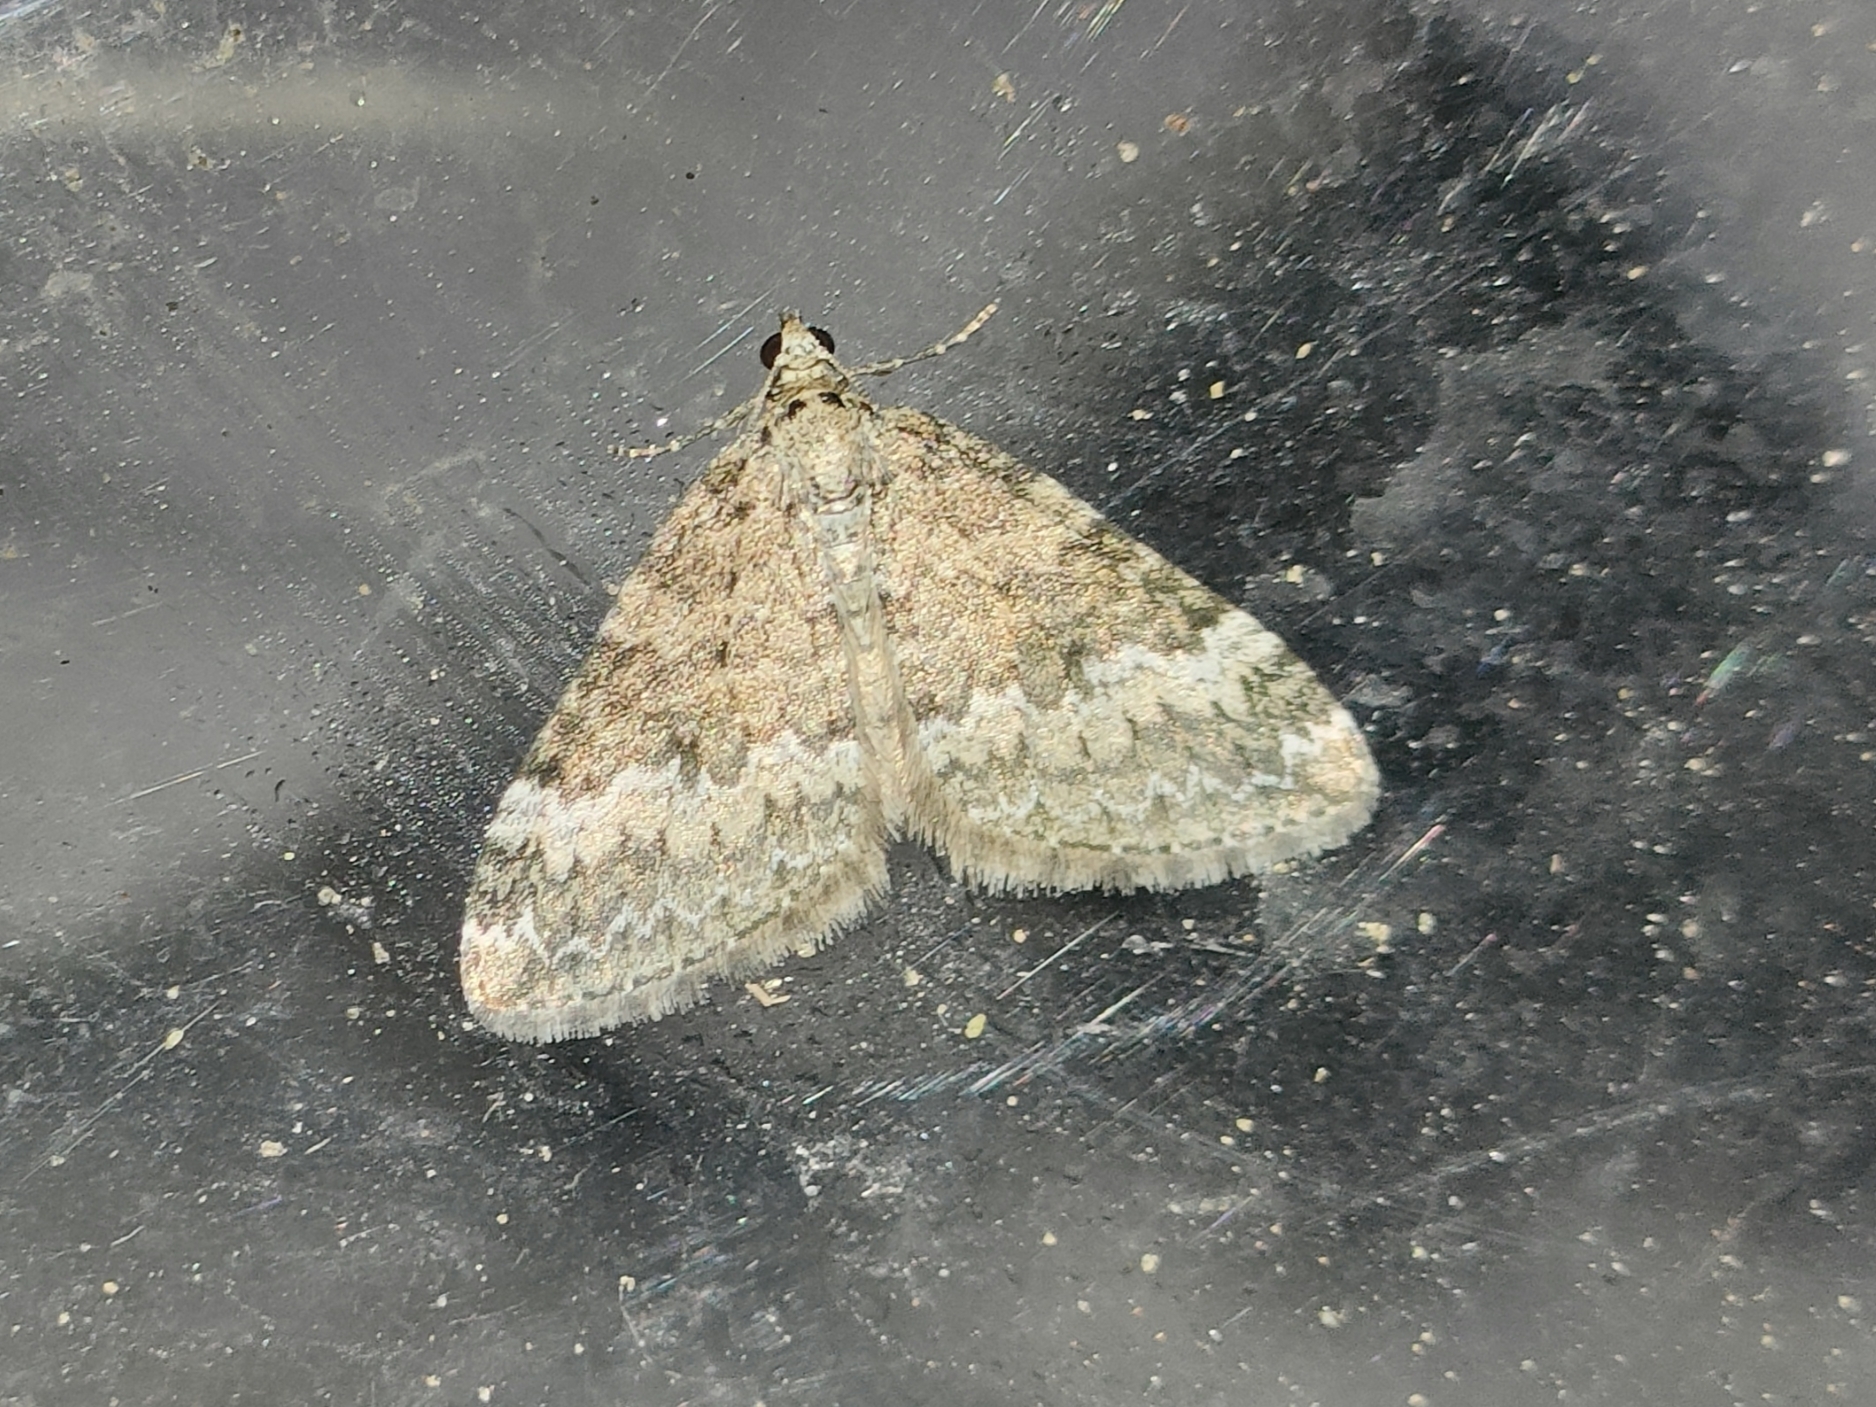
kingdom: Animalia
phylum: Arthropoda
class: Insecta
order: Lepidoptera
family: Geometridae
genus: Perizoma
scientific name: Perizoma hydrata
